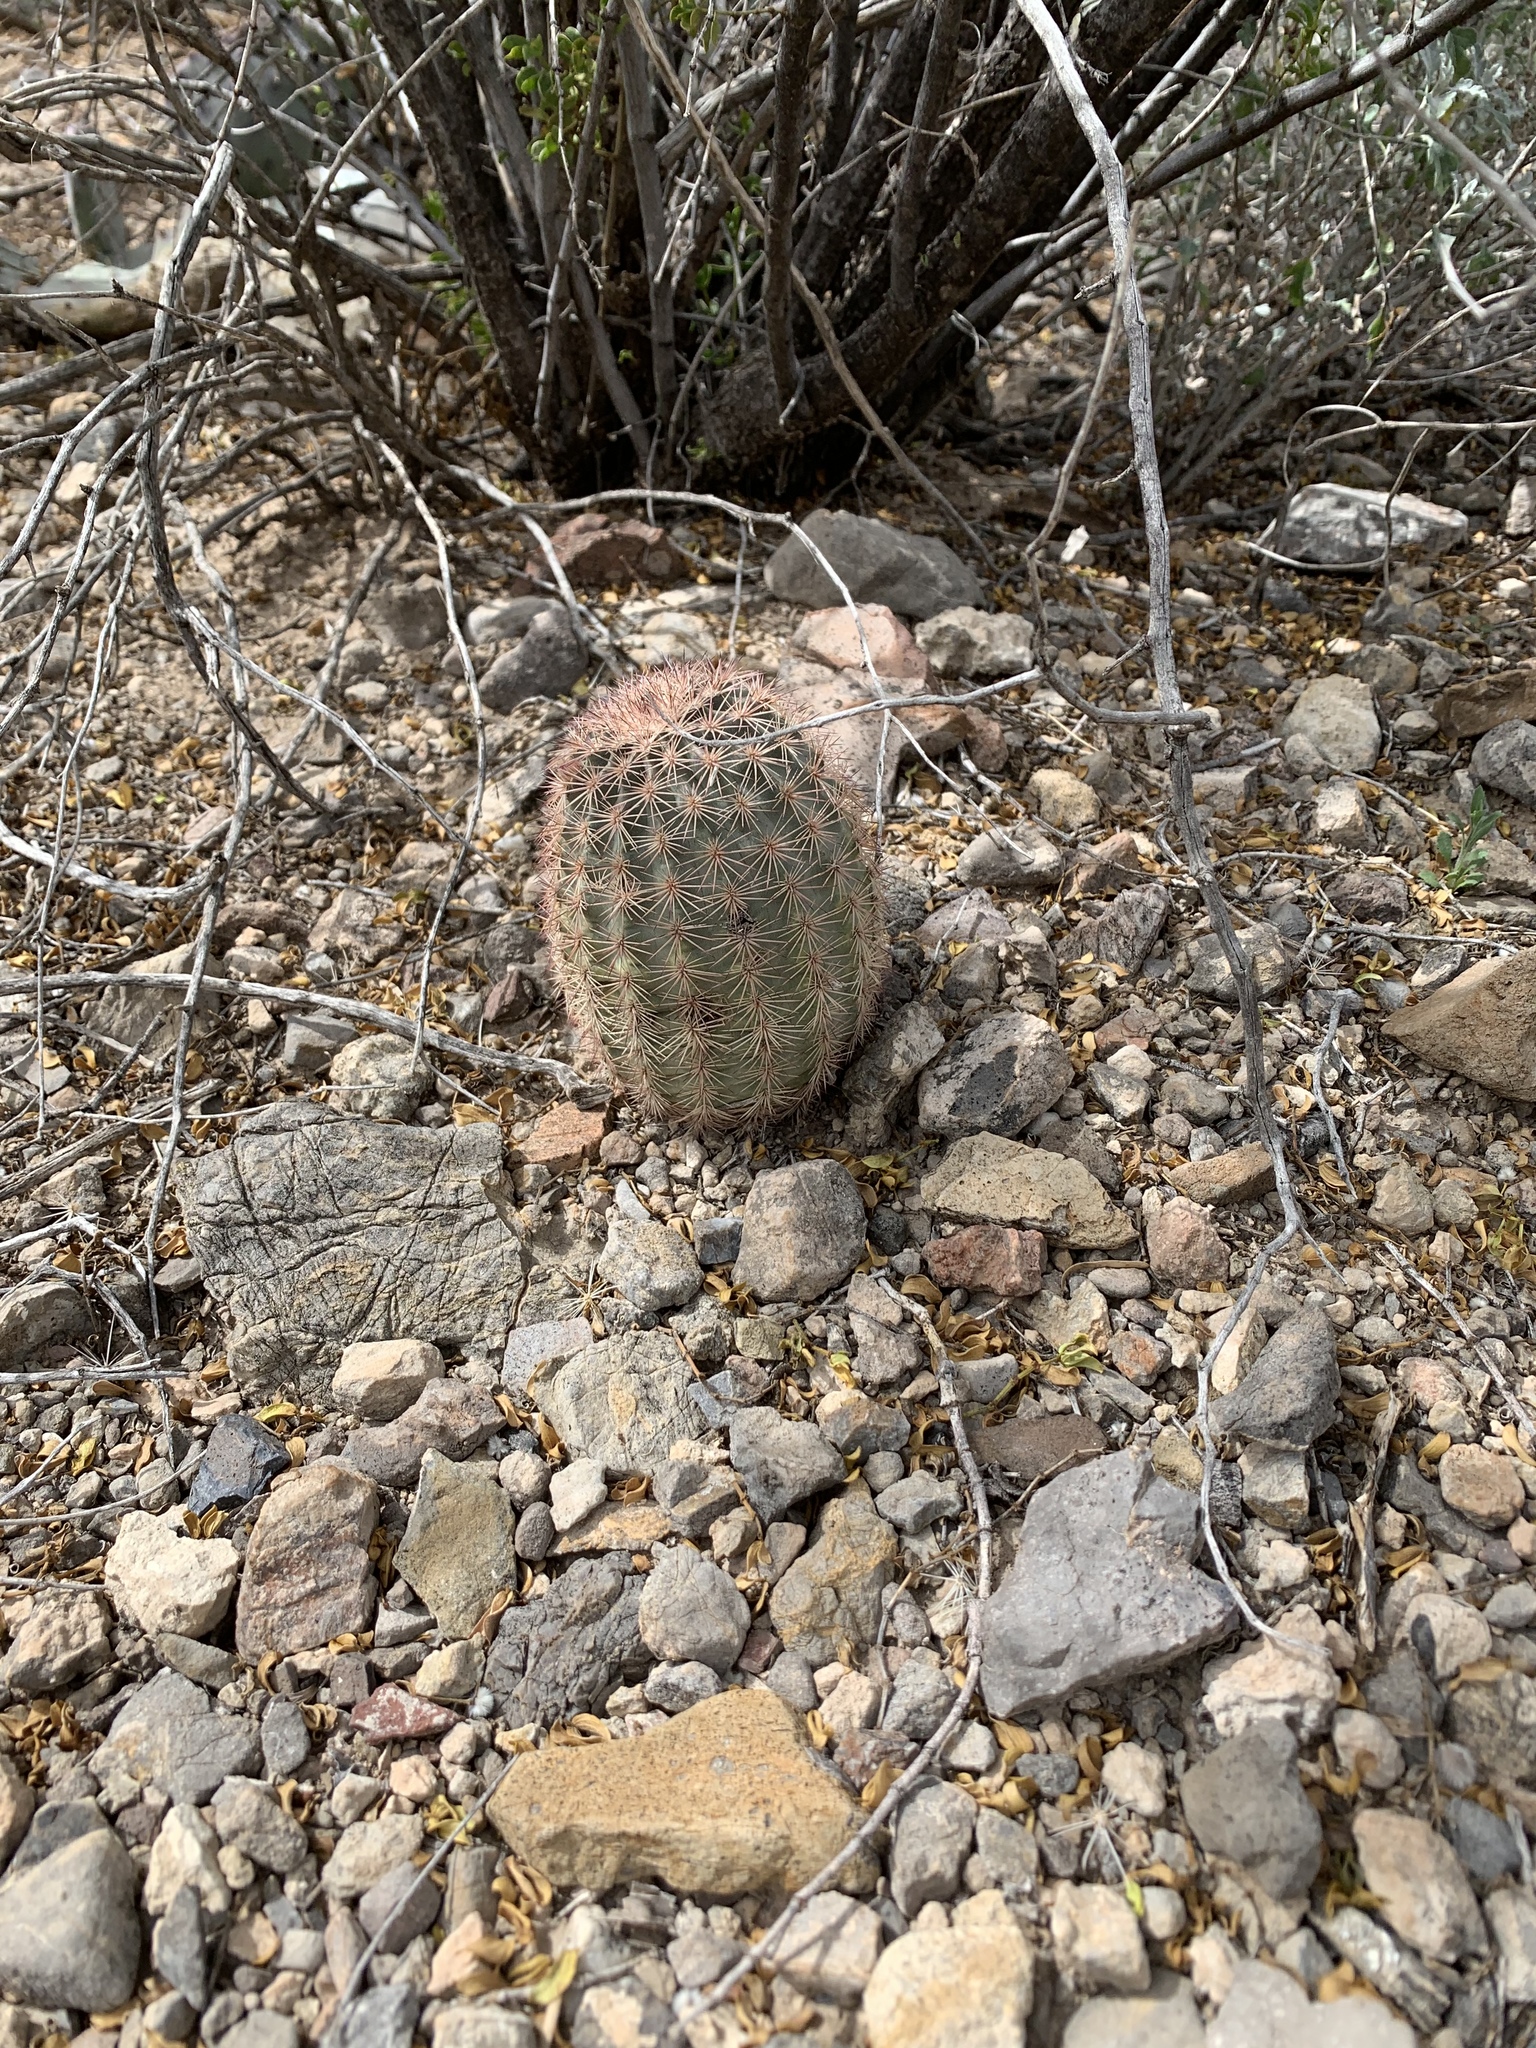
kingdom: Plantae
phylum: Tracheophyta
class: Magnoliopsida
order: Caryophyllales
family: Cactaceae
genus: Echinocereus
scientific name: Echinocereus dasyacanthus
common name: Spiny hedgehog cactus
